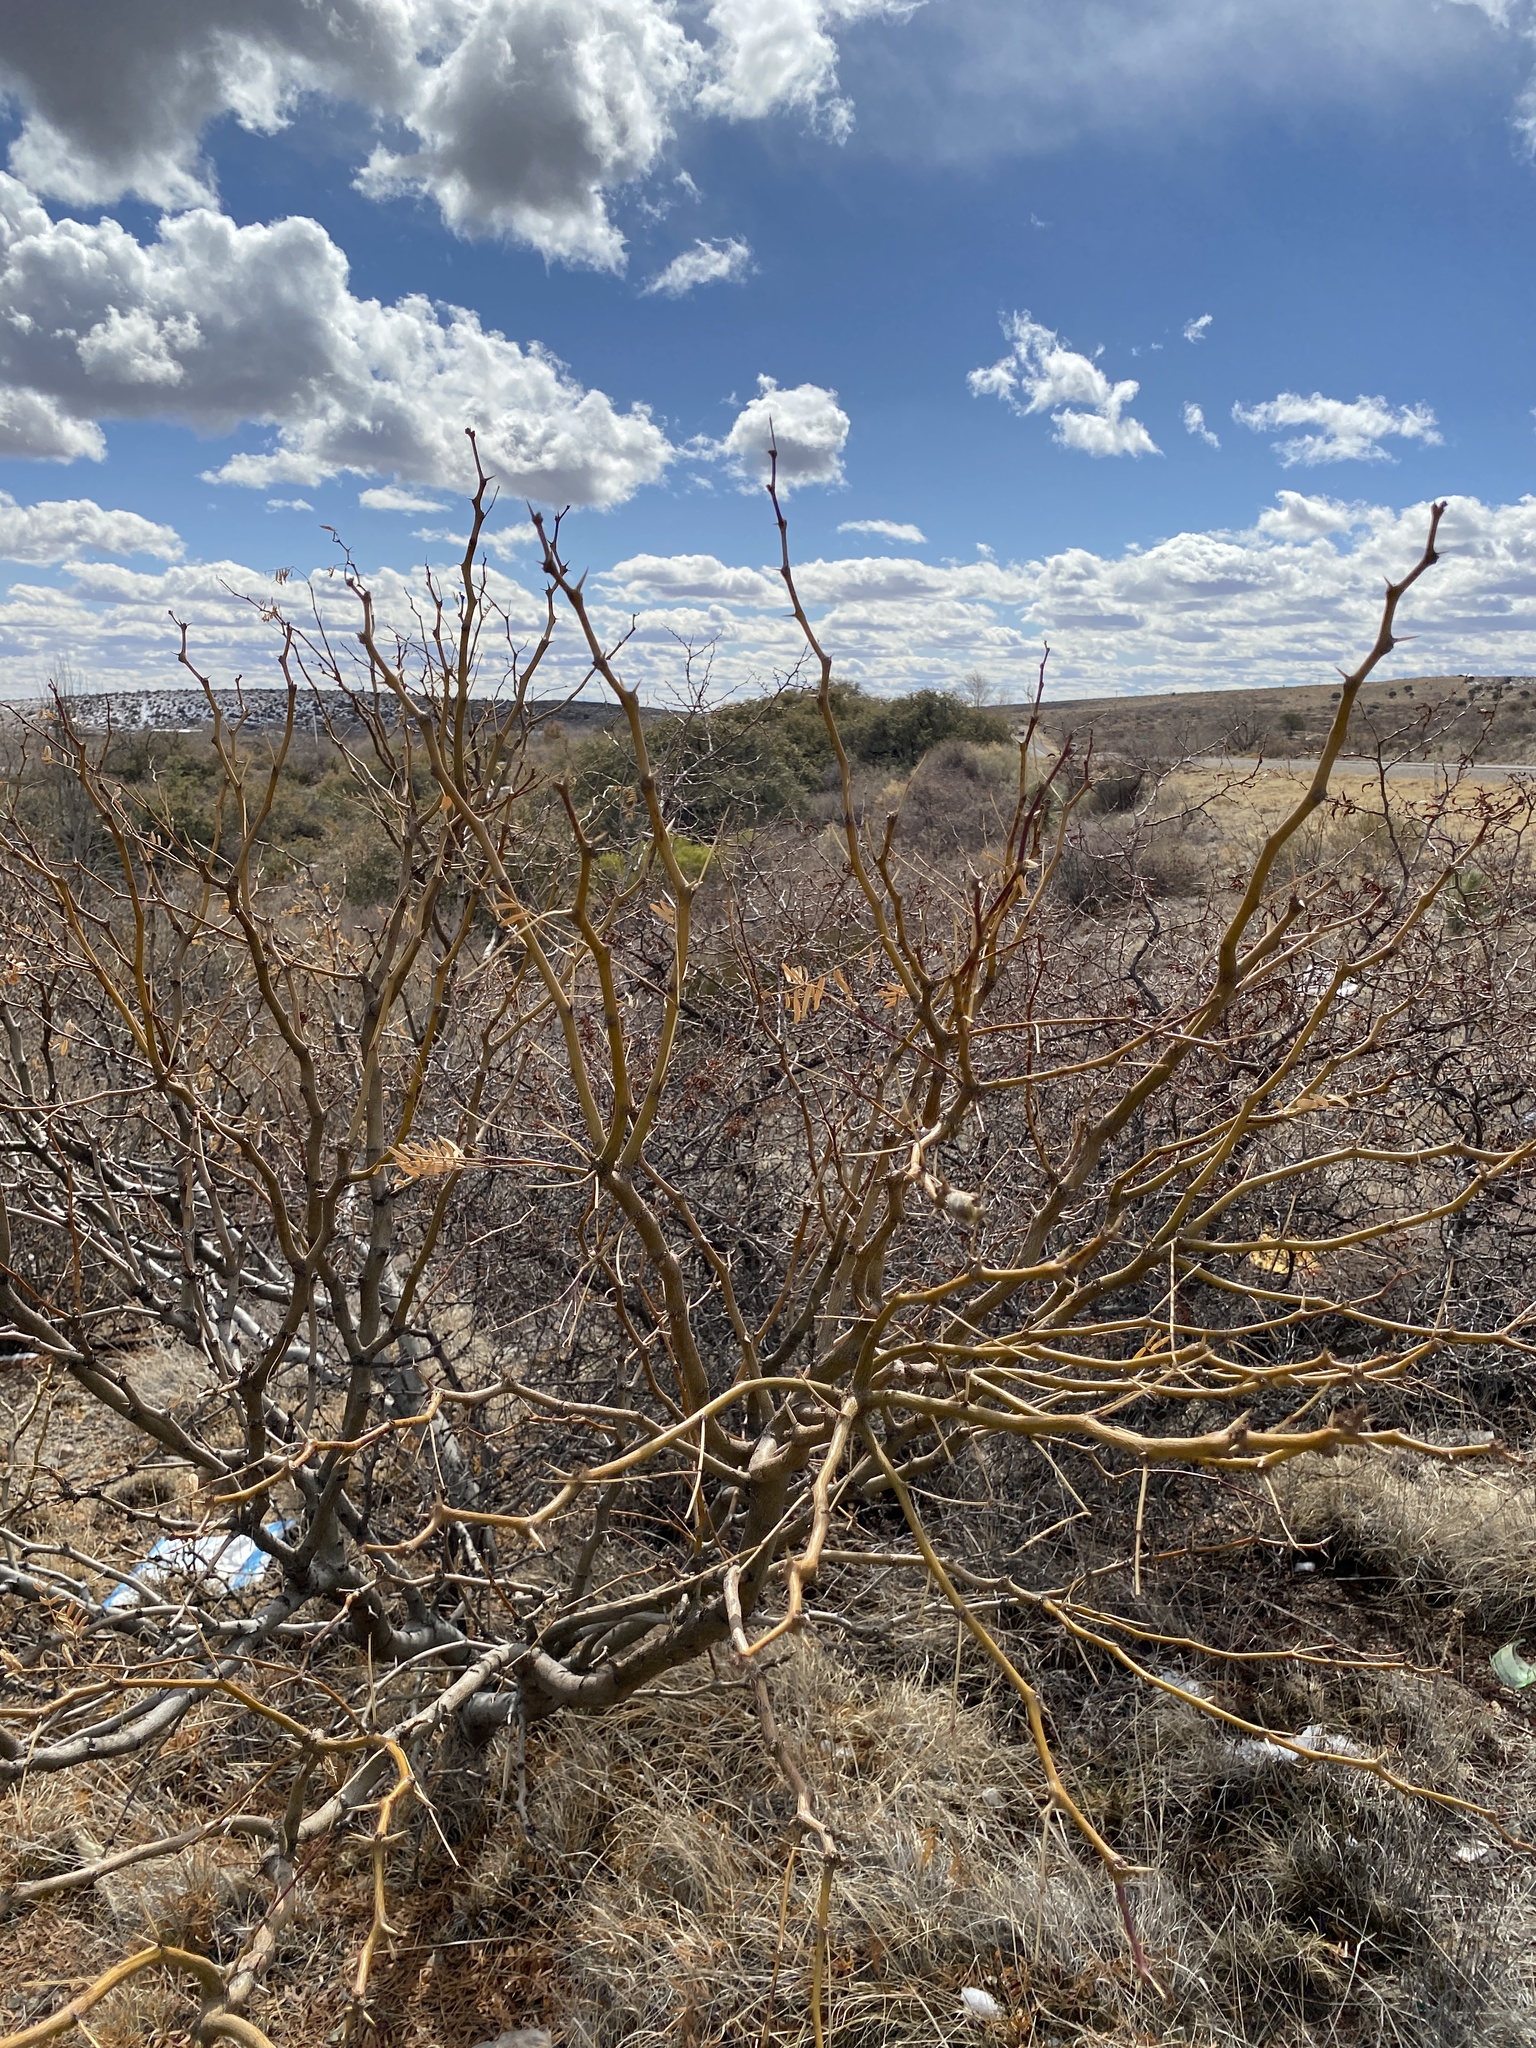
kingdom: Plantae
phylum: Tracheophyta
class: Magnoliopsida
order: Fabales
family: Fabaceae
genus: Prosopis
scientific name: Prosopis glandulosa
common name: Honey mesquite
